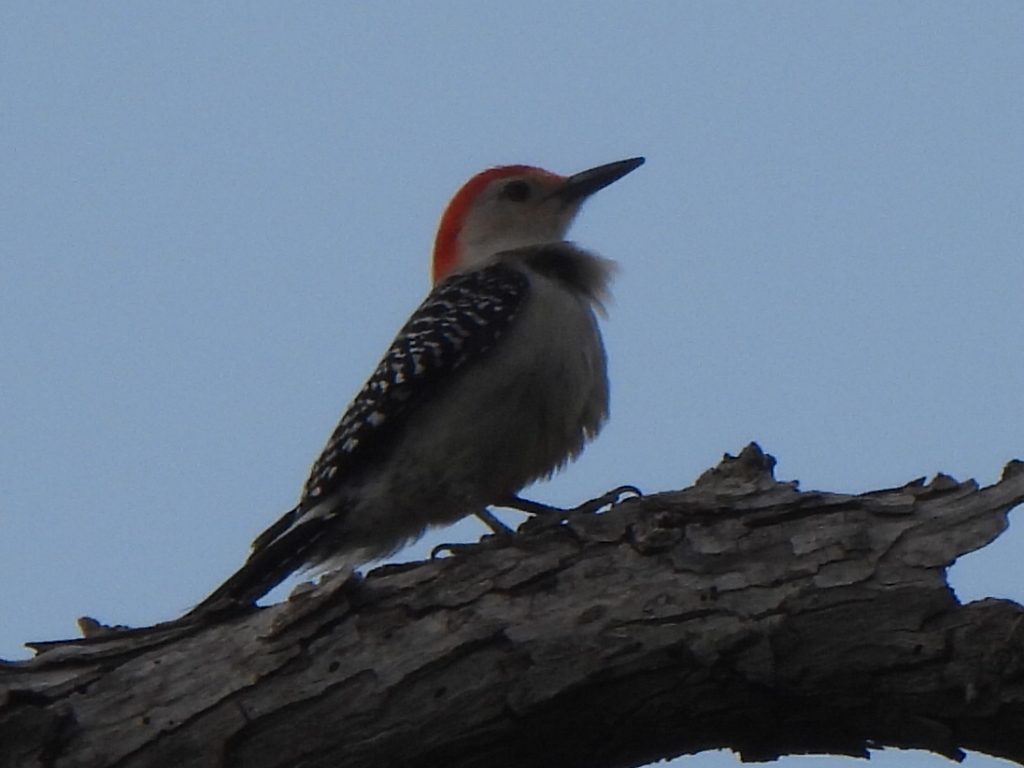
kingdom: Animalia
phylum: Chordata
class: Aves
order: Piciformes
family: Picidae
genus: Melanerpes
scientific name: Melanerpes carolinus
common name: Red-bellied woodpecker
